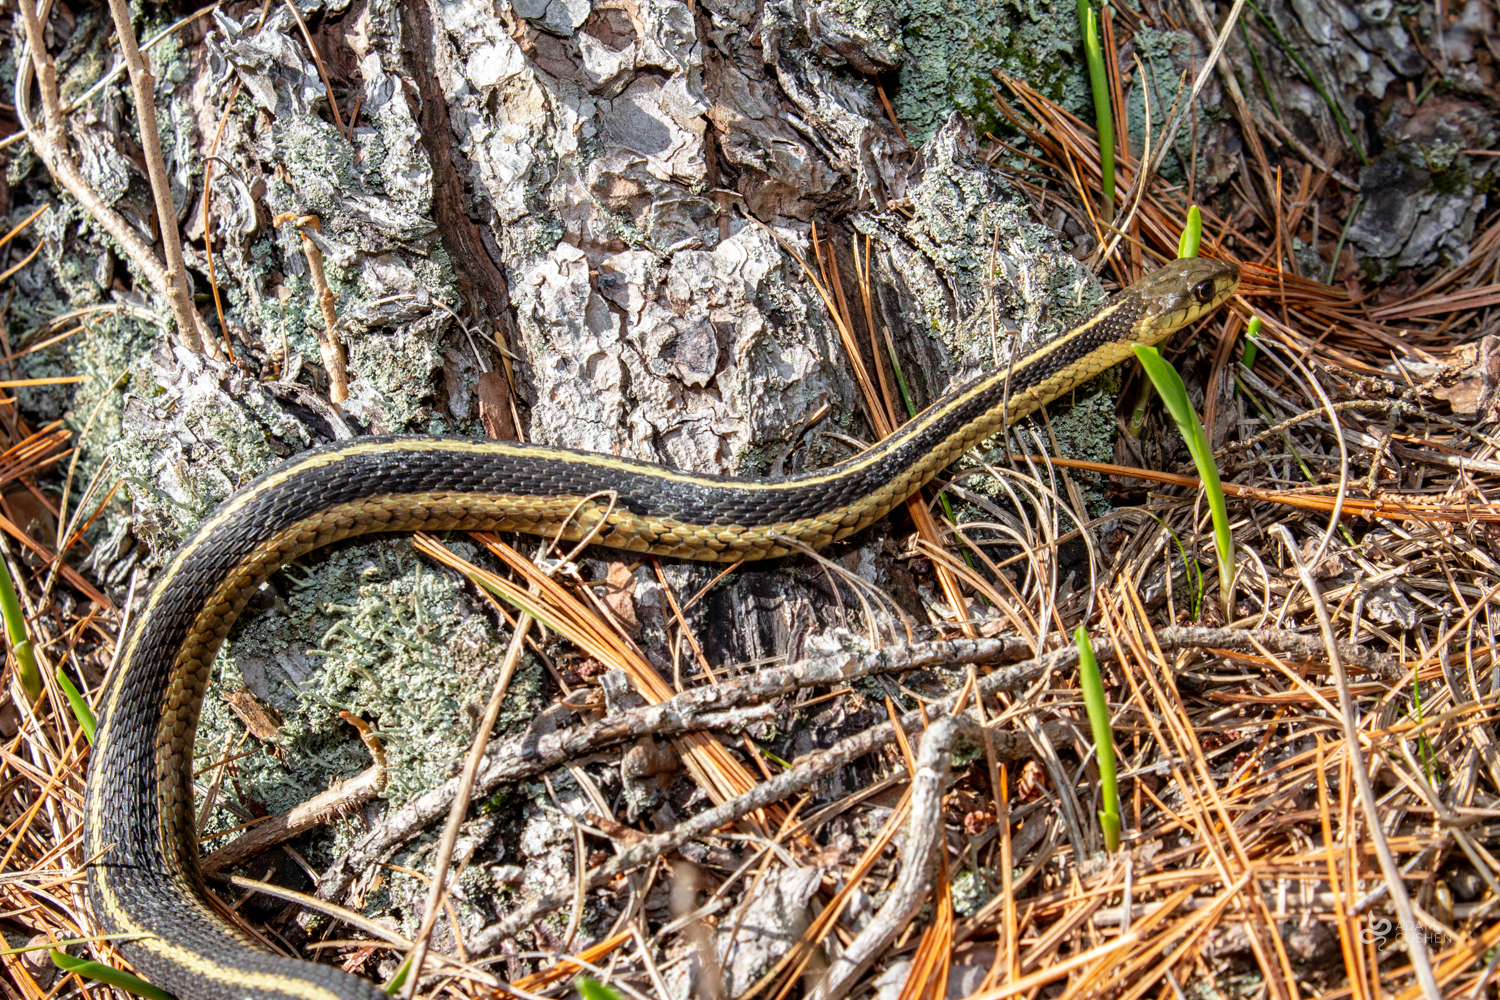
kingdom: Animalia
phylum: Chordata
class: Squamata
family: Colubridae
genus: Thamnophis
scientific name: Thamnophis sirtalis
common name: Common garter snake
